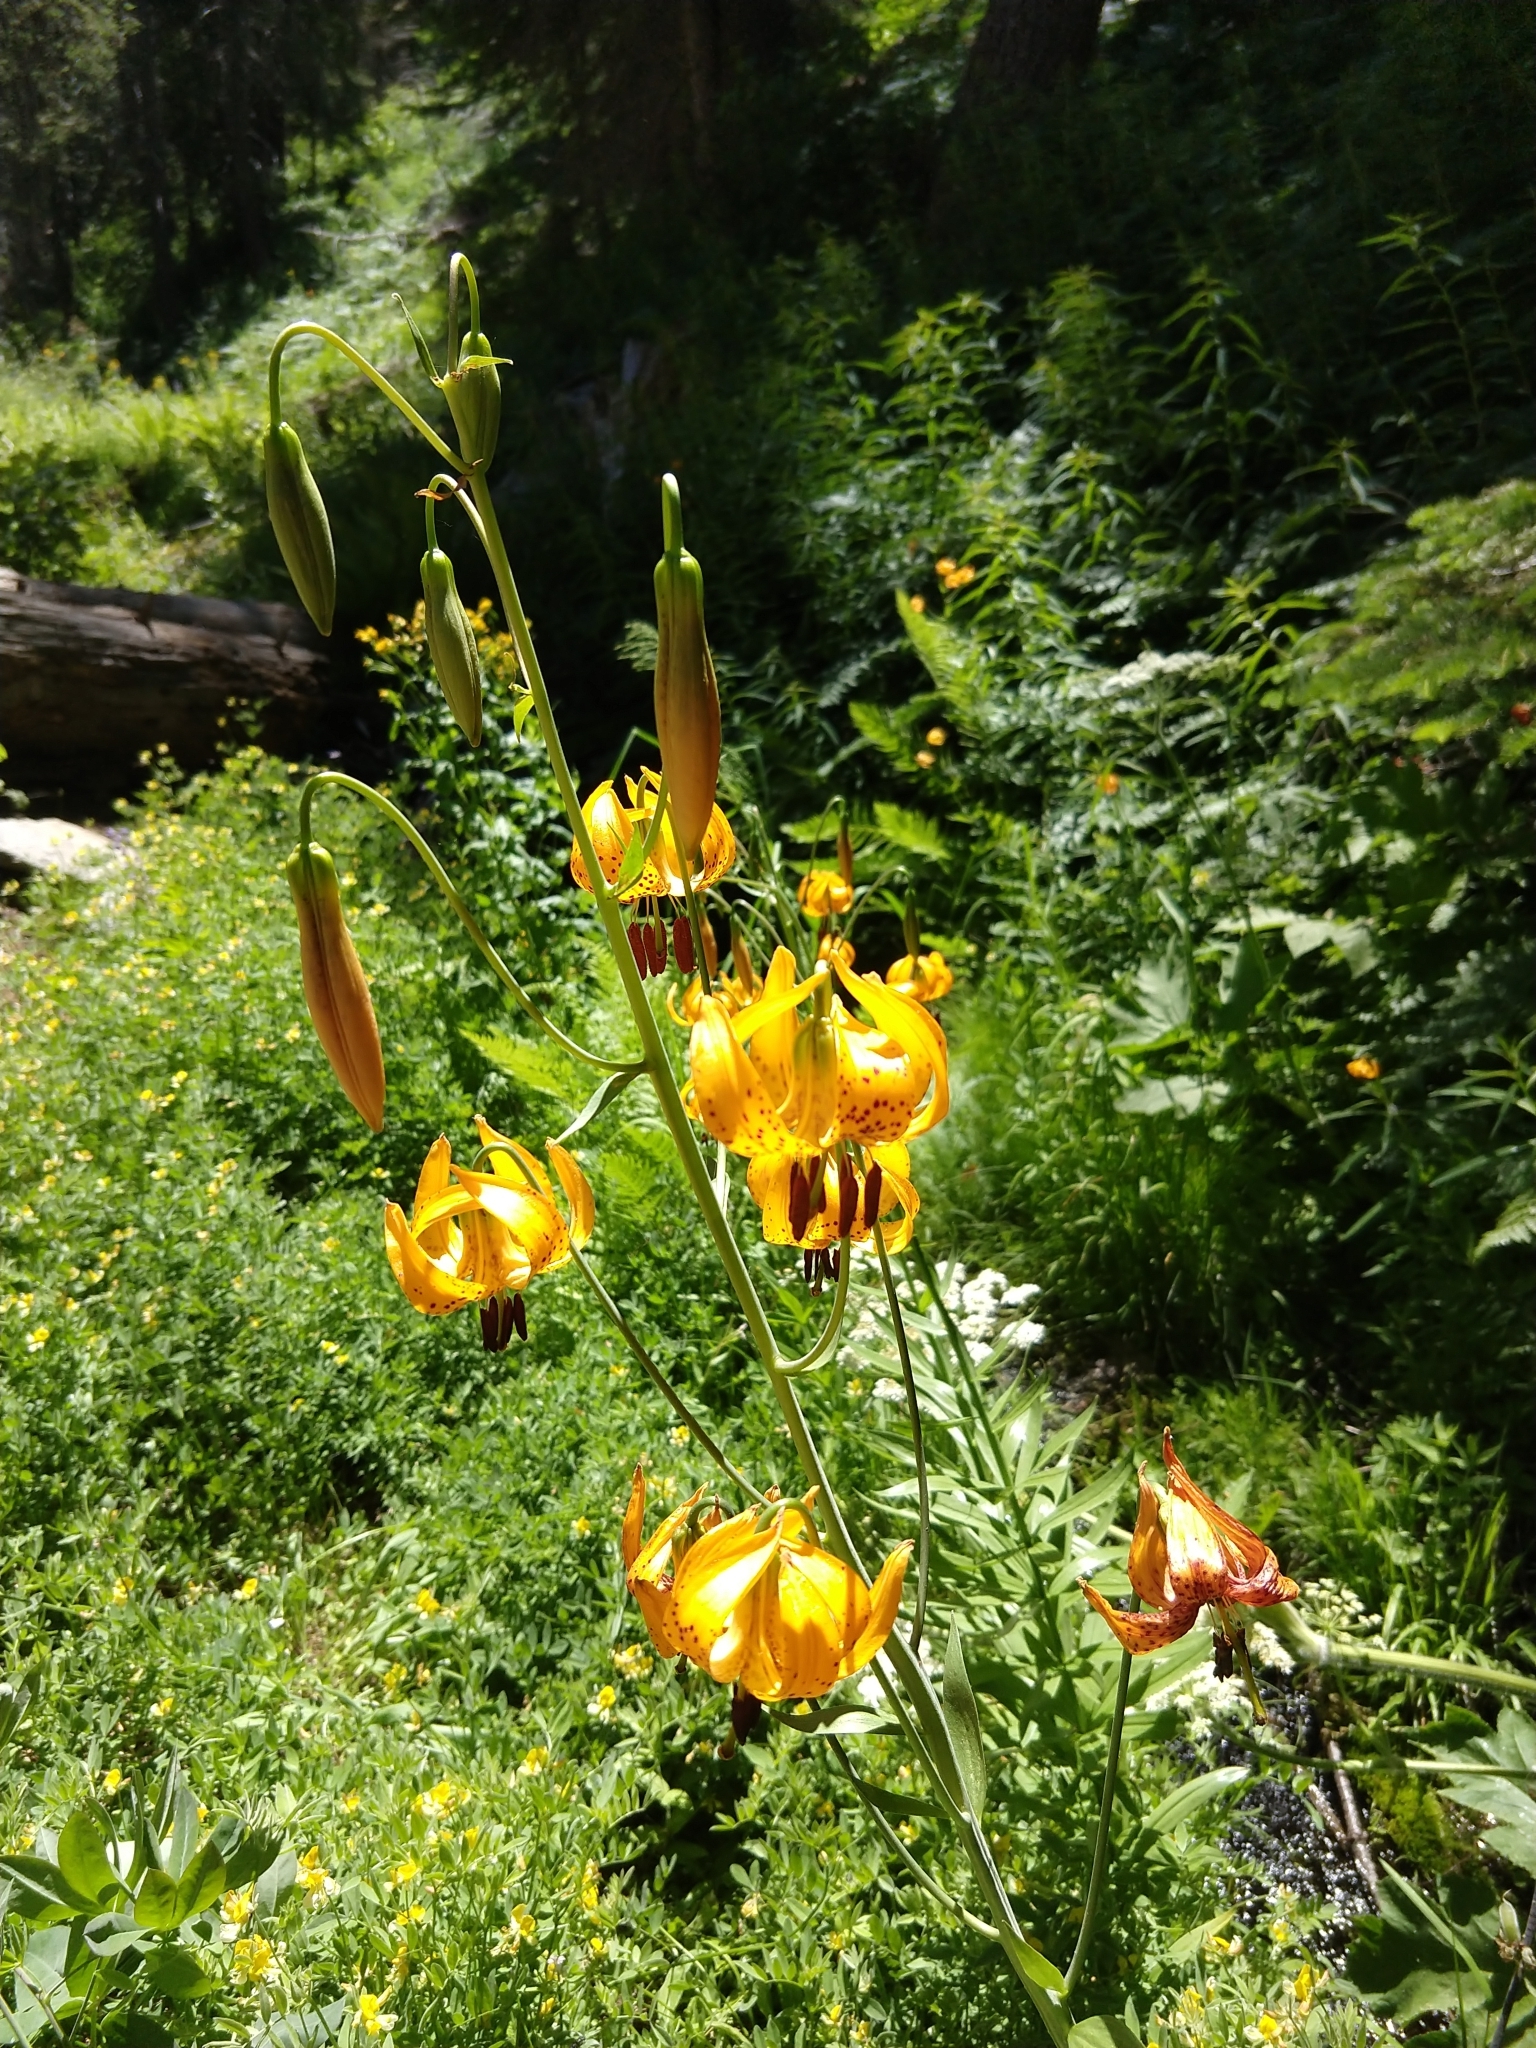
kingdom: Plantae
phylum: Tracheophyta
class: Liliopsida
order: Liliales
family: Liliaceae
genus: Lilium
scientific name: Lilium kelleyanum
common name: Kelley's lily
